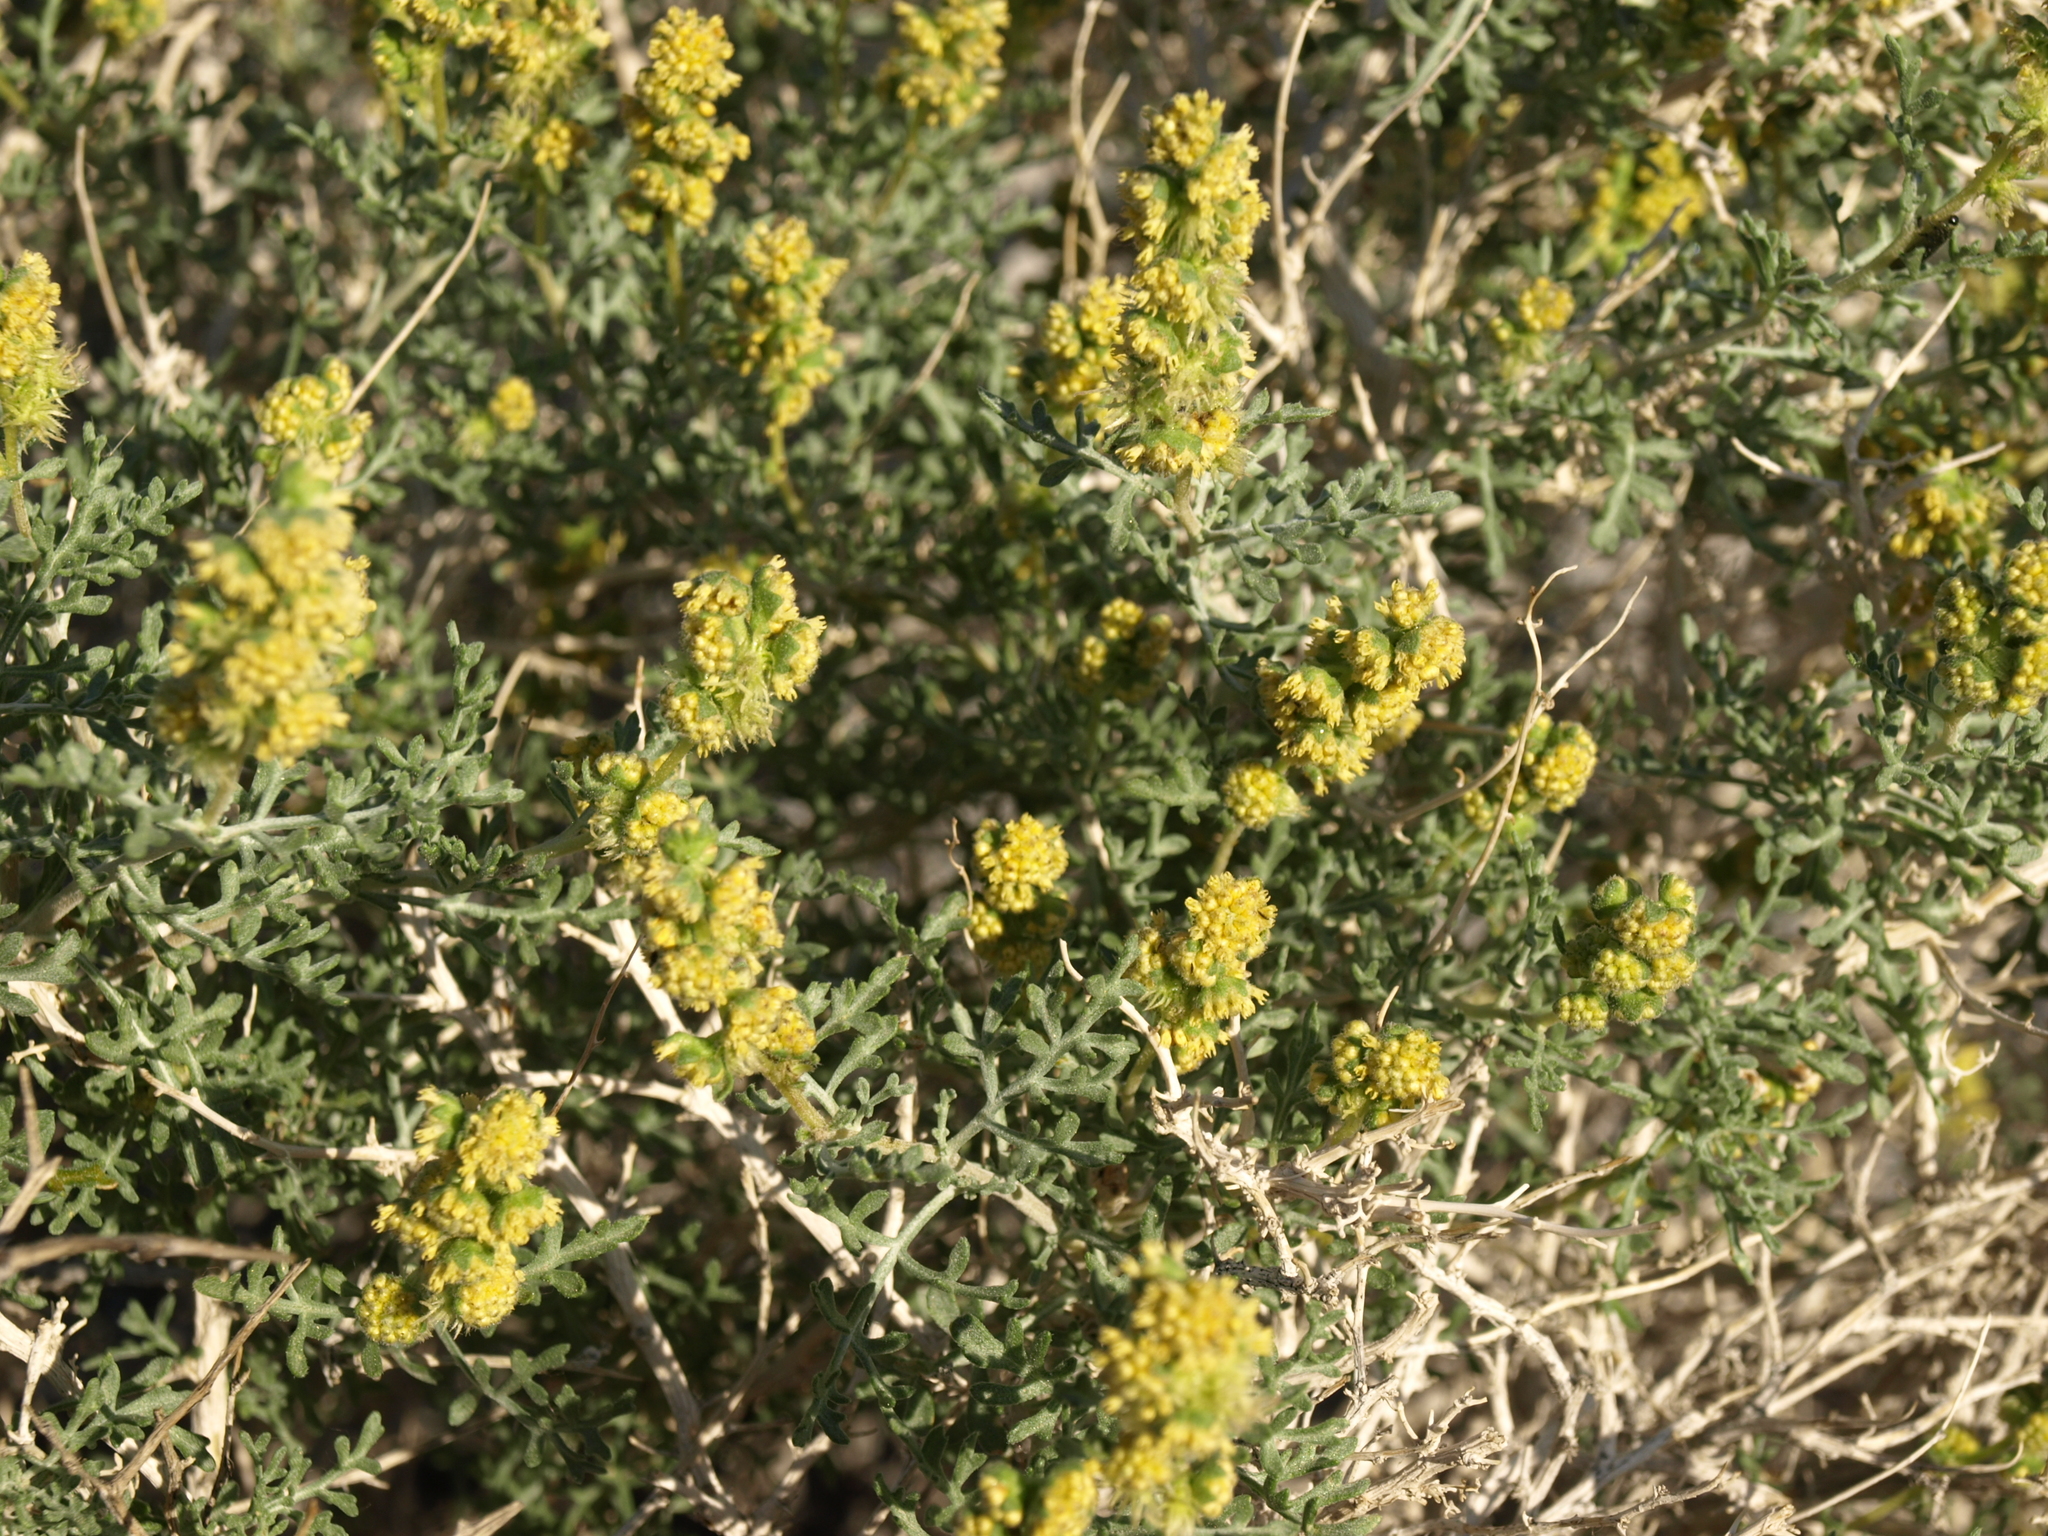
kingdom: Plantae
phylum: Tracheophyta
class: Magnoliopsida
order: Asterales
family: Asteraceae
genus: Ambrosia
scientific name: Ambrosia dumosa
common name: Bur-sage
